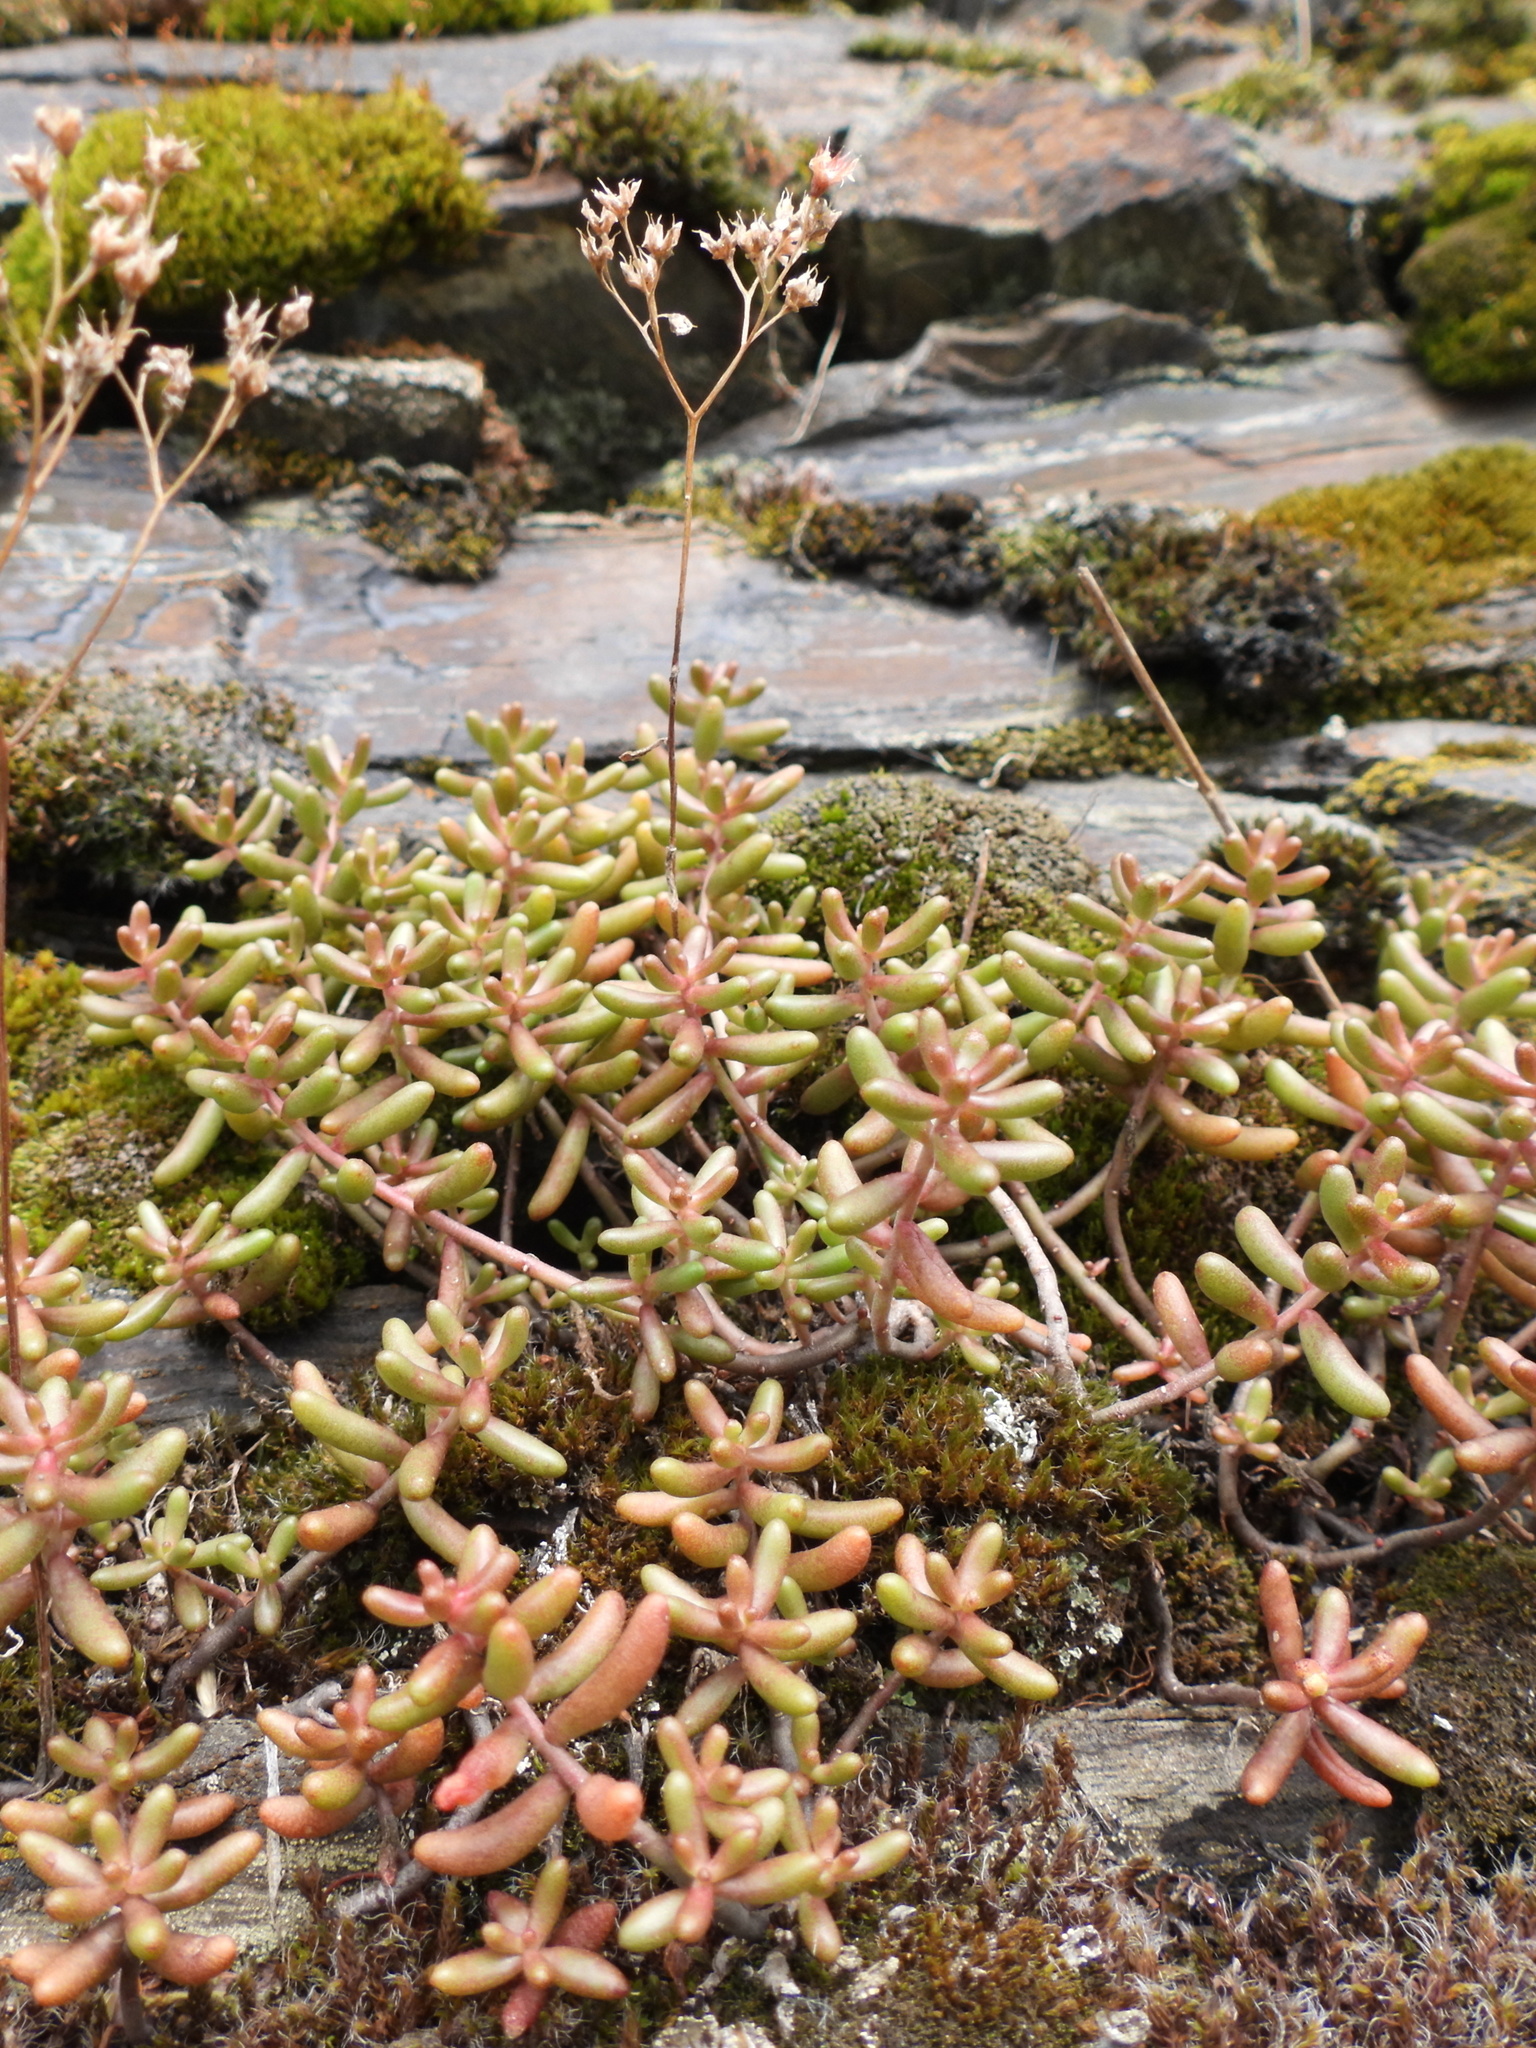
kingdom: Plantae
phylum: Tracheophyta
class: Magnoliopsida
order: Saxifragales
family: Crassulaceae
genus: Sedum
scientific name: Sedum album
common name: White stonecrop
